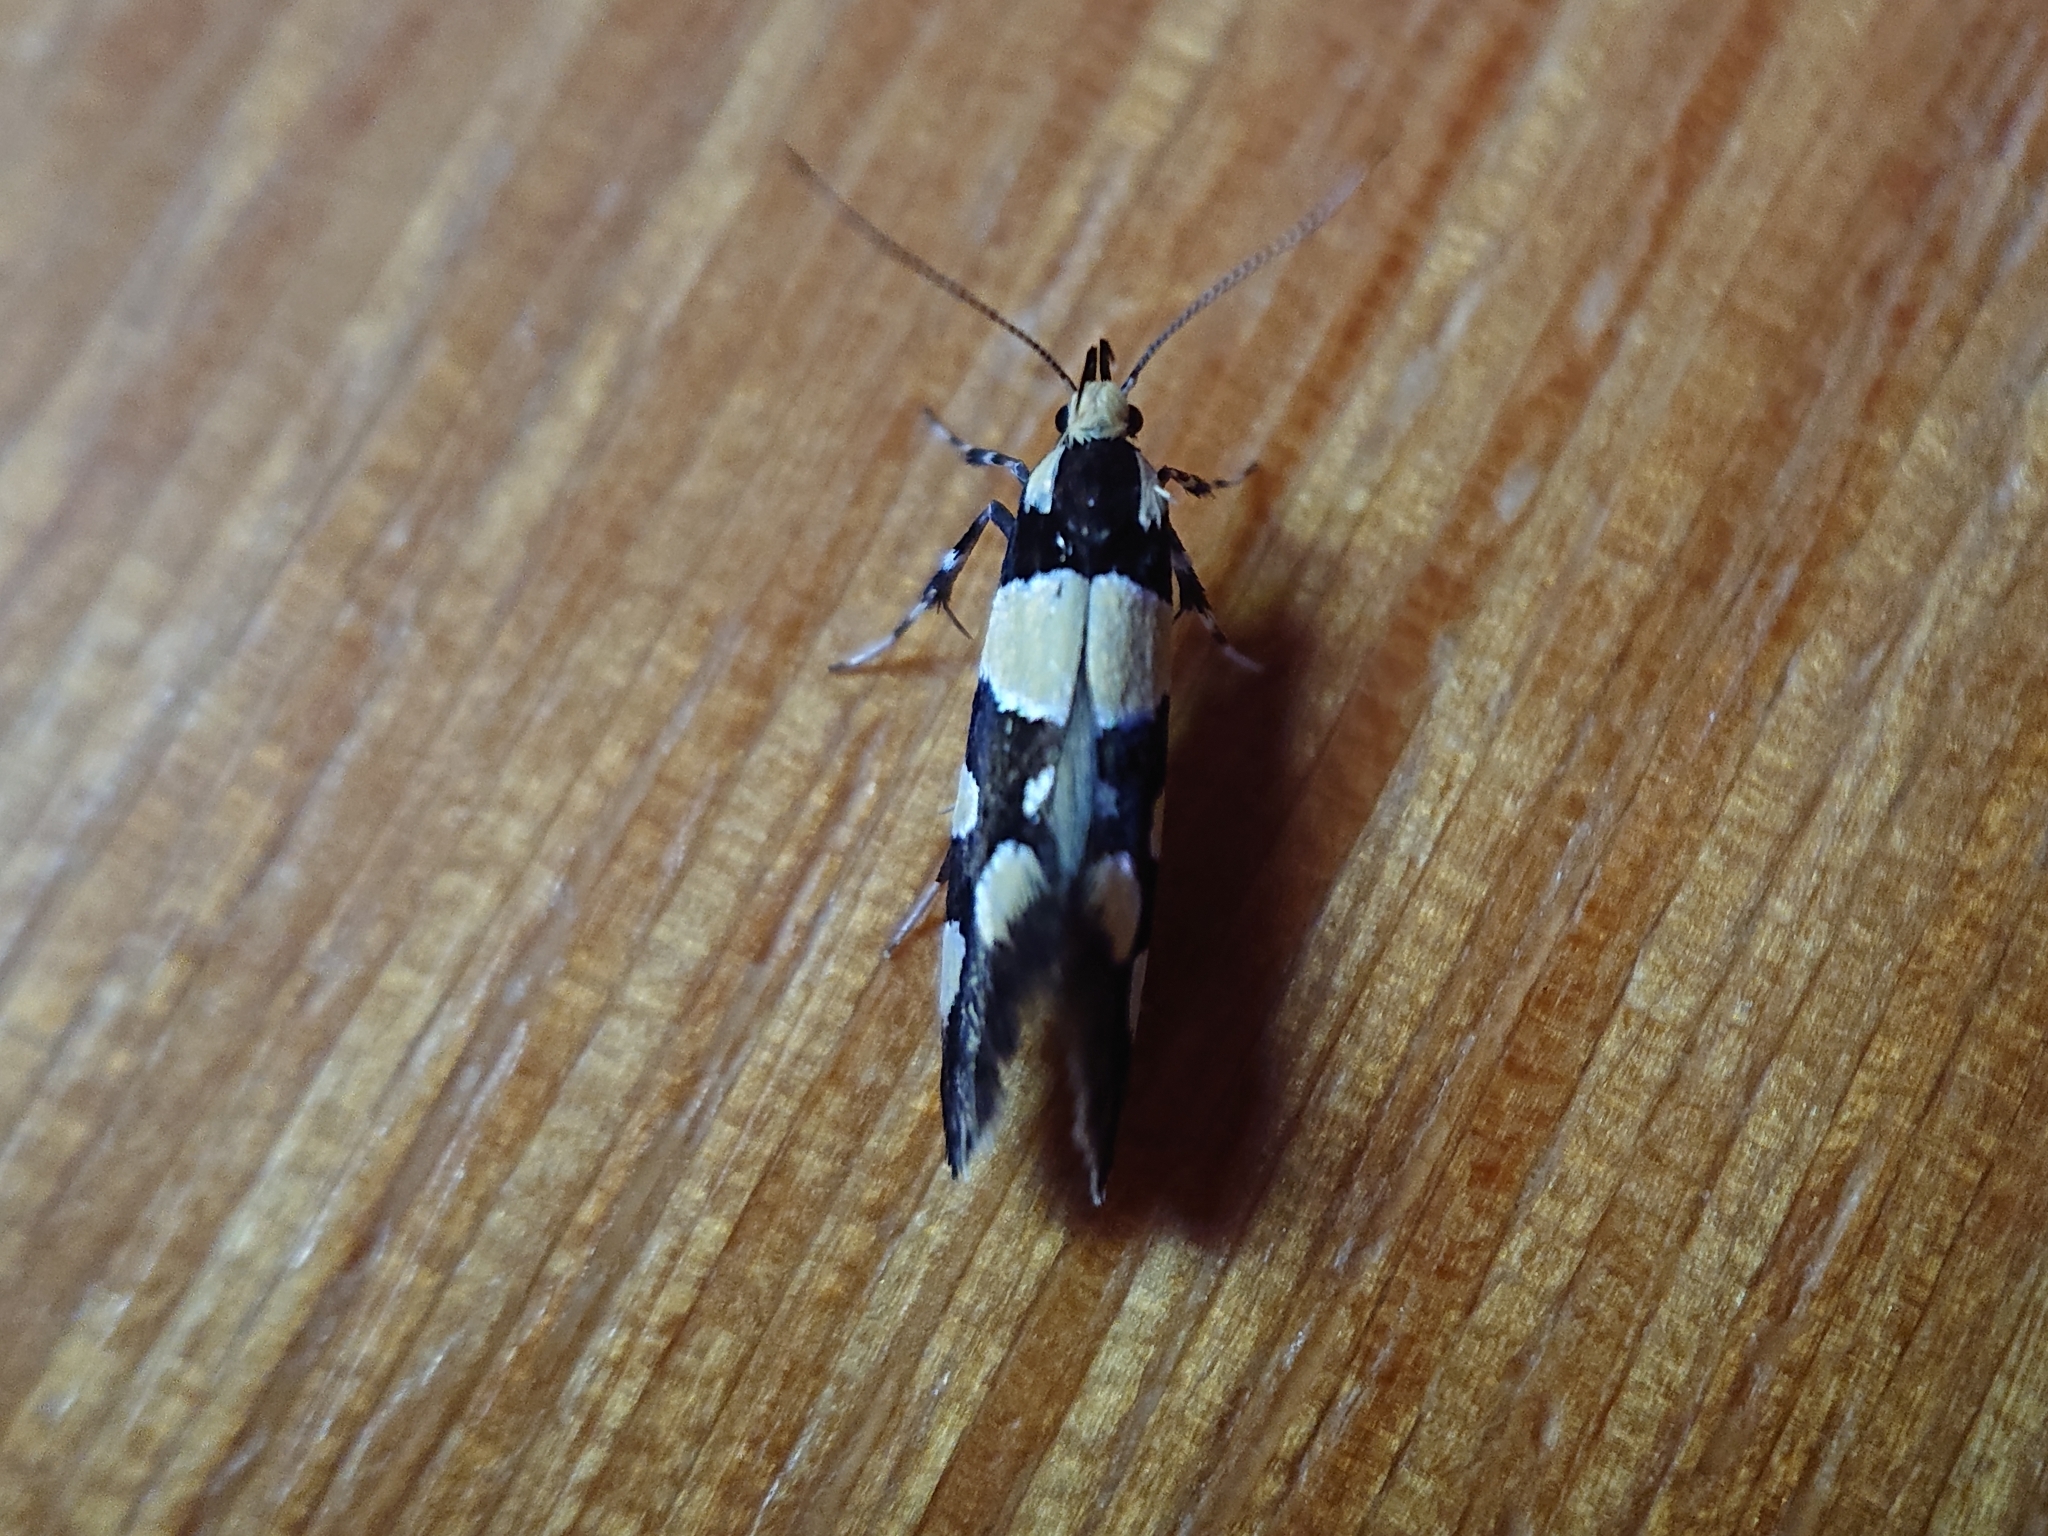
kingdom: Animalia
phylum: Arthropoda
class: Insecta
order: Lepidoptera
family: Oecophoridae
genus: Schiffermuelleria
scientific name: Schiffermuelleria amasiella
